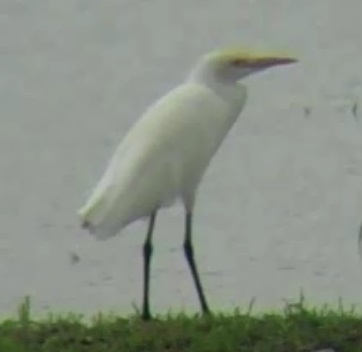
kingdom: Animalia
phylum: Chordata
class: Aves
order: Pelecaniformes
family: Ardeidae
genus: Bubulcus
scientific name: Bubulcus coromandus
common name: Eastern cattle egret
